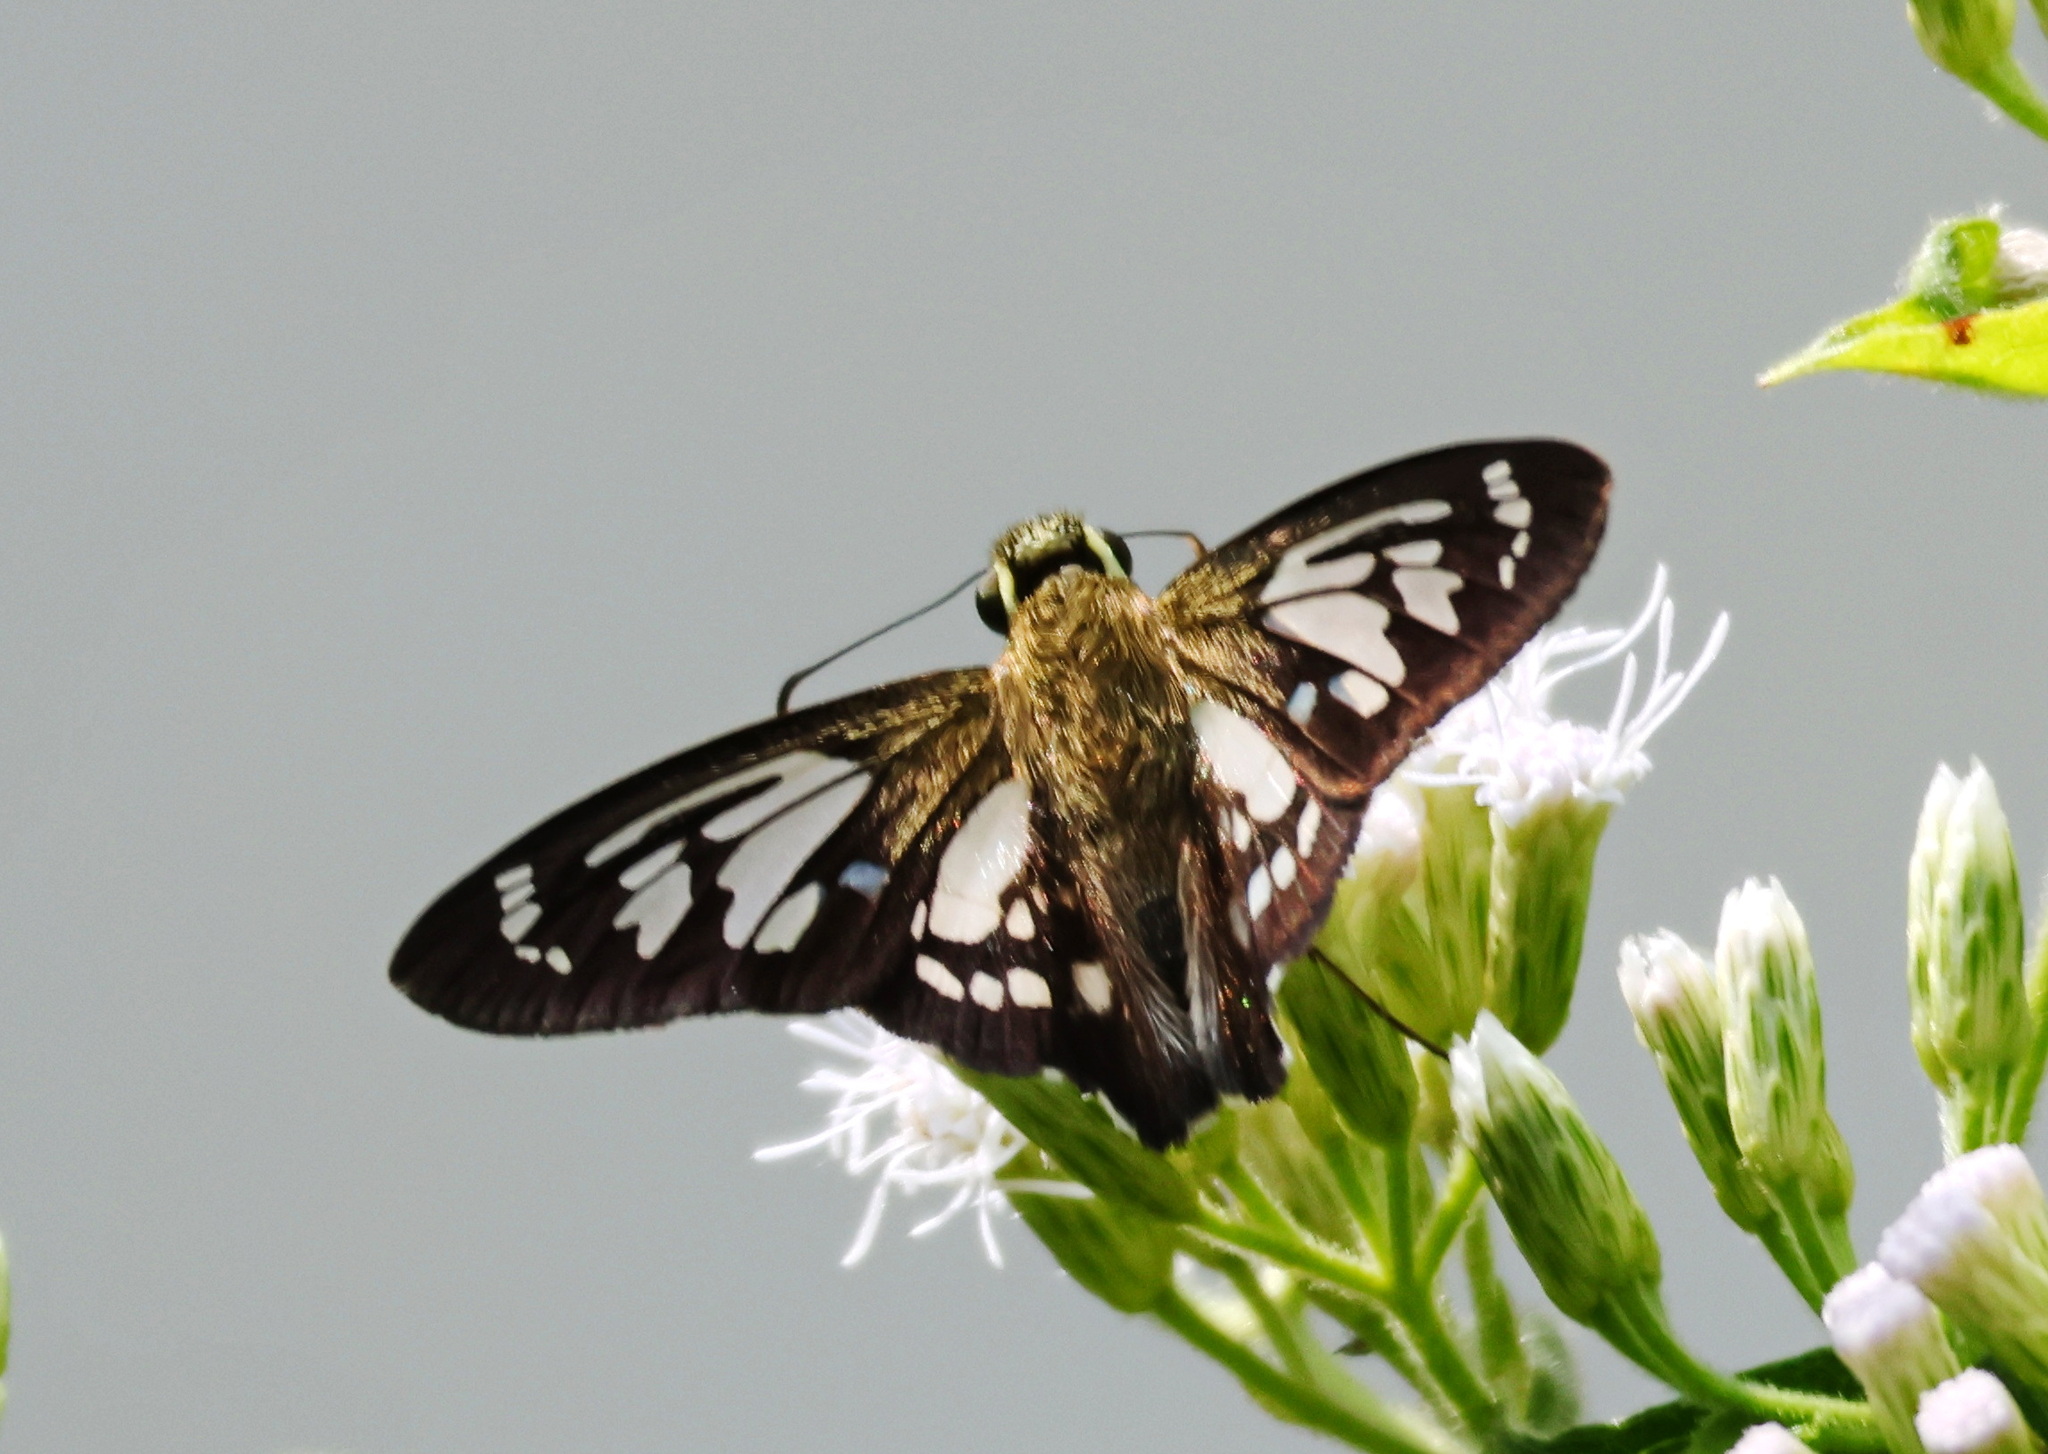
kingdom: Animalia
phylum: Arthropoda
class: Insecta
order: Lepidoptera
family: Hesperiidae
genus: Phanus
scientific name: Phanus
